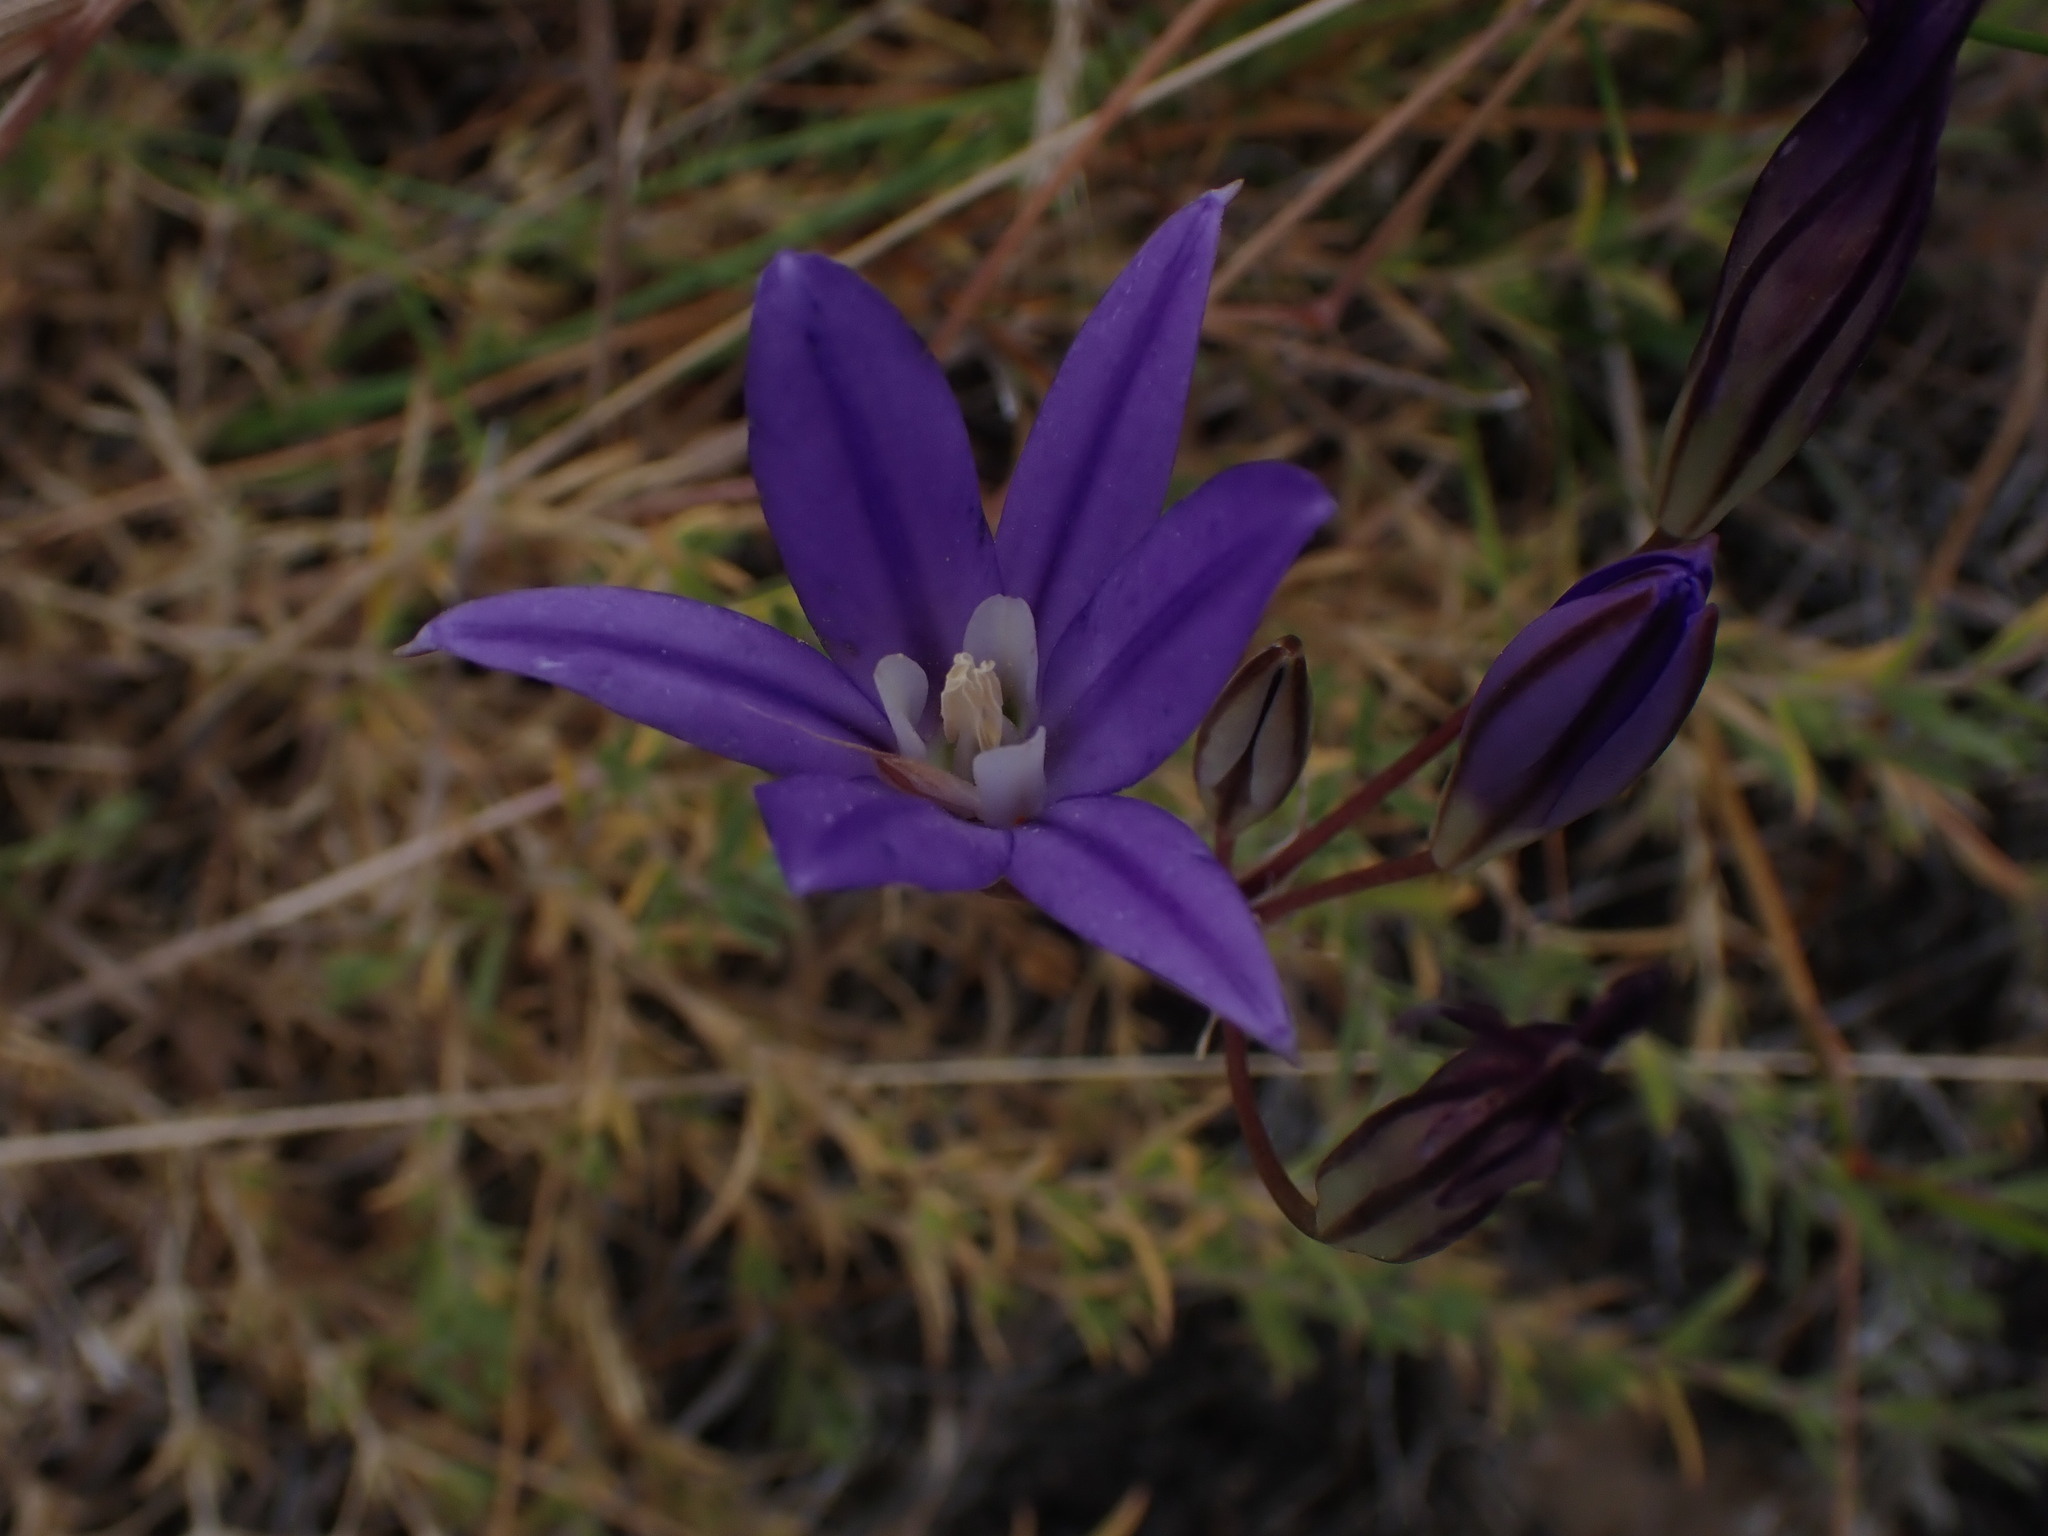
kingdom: Plantae
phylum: Tracheophyta
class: Liliopsida
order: Asparagales
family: Asparagaceae
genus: Brodiaea
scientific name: Brodiaea coronaria
